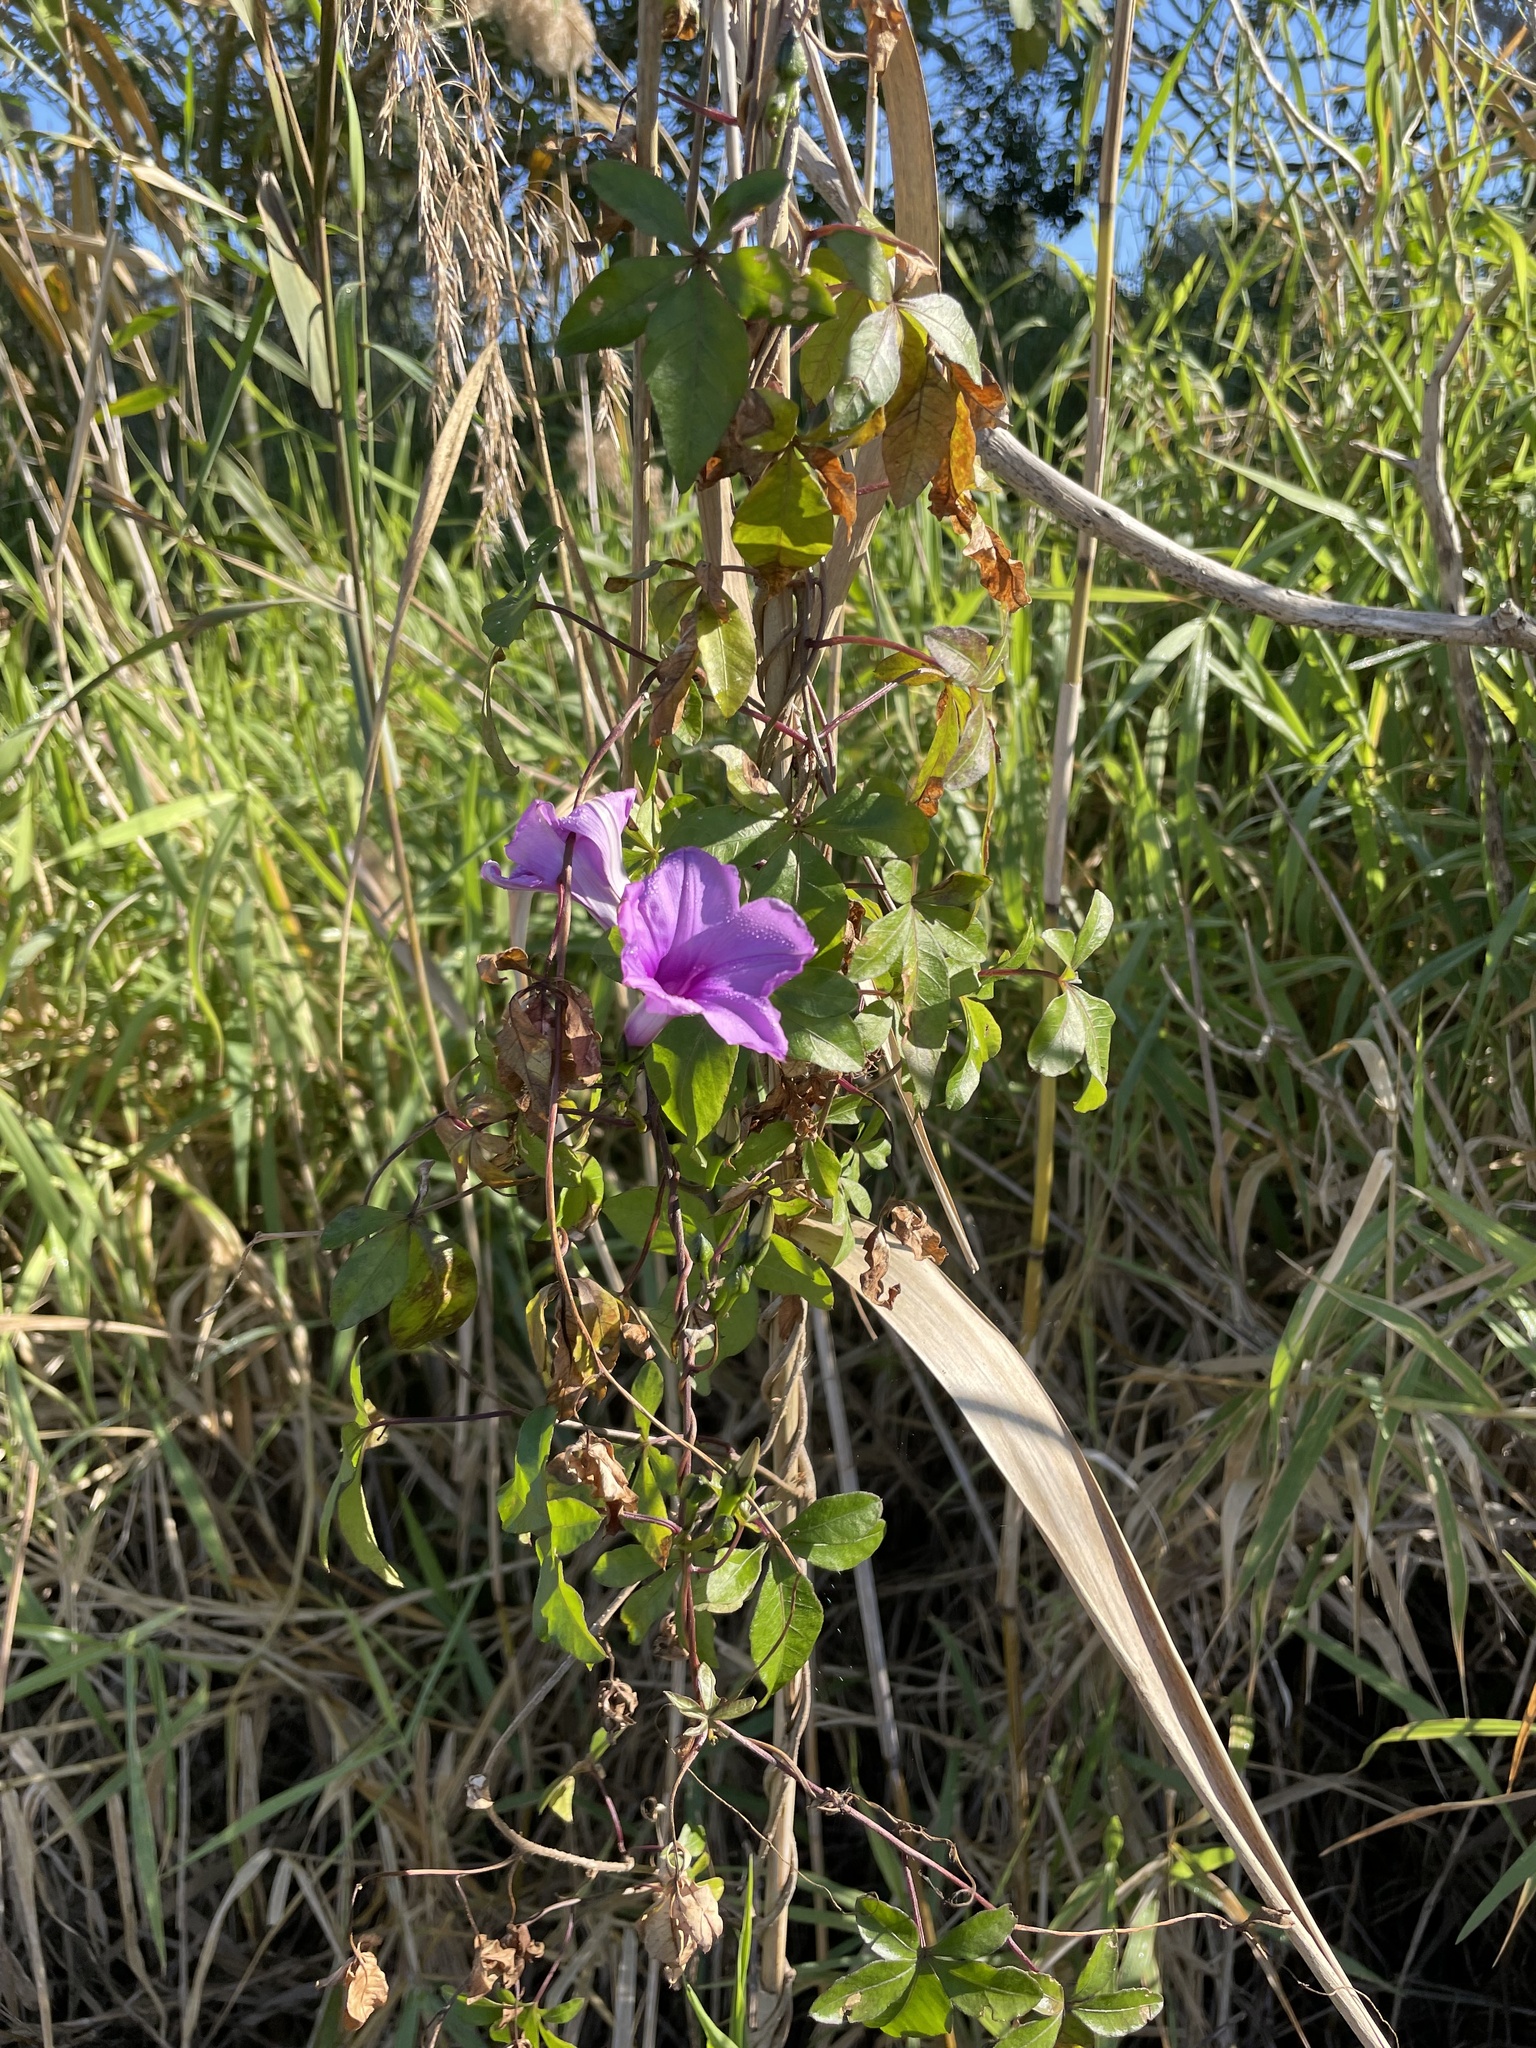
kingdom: Plantae
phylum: Tracheophyta
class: Magnoliopsida
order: Solanales
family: Convolvulaceae
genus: Ipomoea
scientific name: Ipomoea cairica
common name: Mile a minute vine
